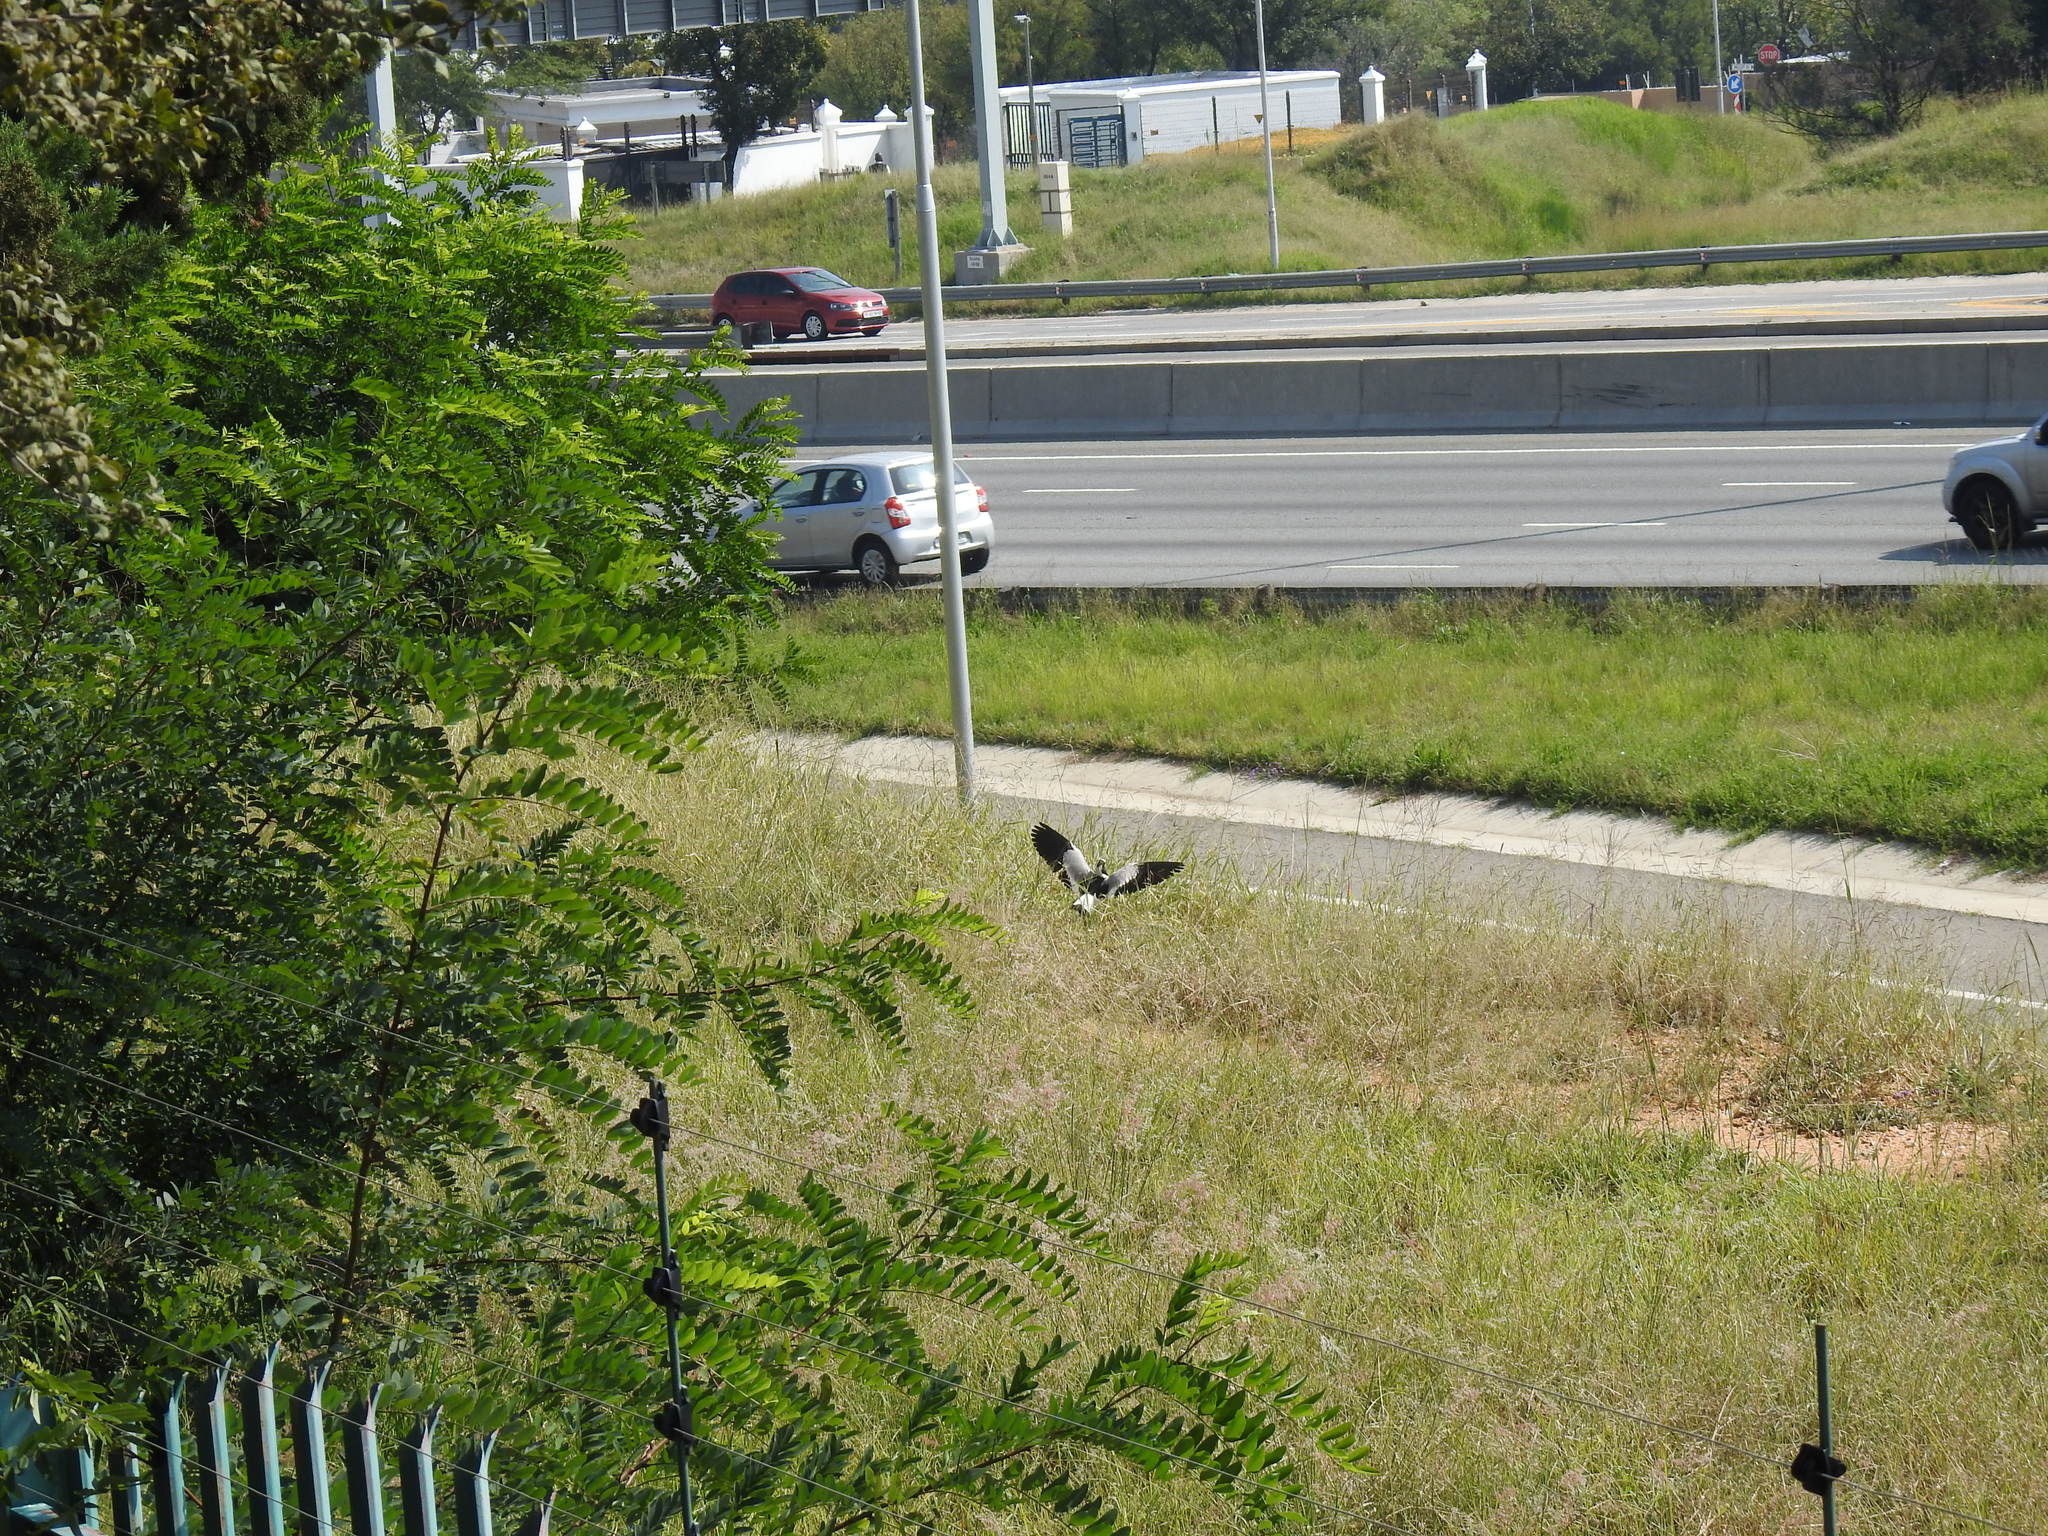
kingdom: Animalia
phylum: Chordata
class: Aves
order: Charadriiformes
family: Charadriidae
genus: Vanellus
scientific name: Vanellus armatus
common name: Blacksmith lapwing
